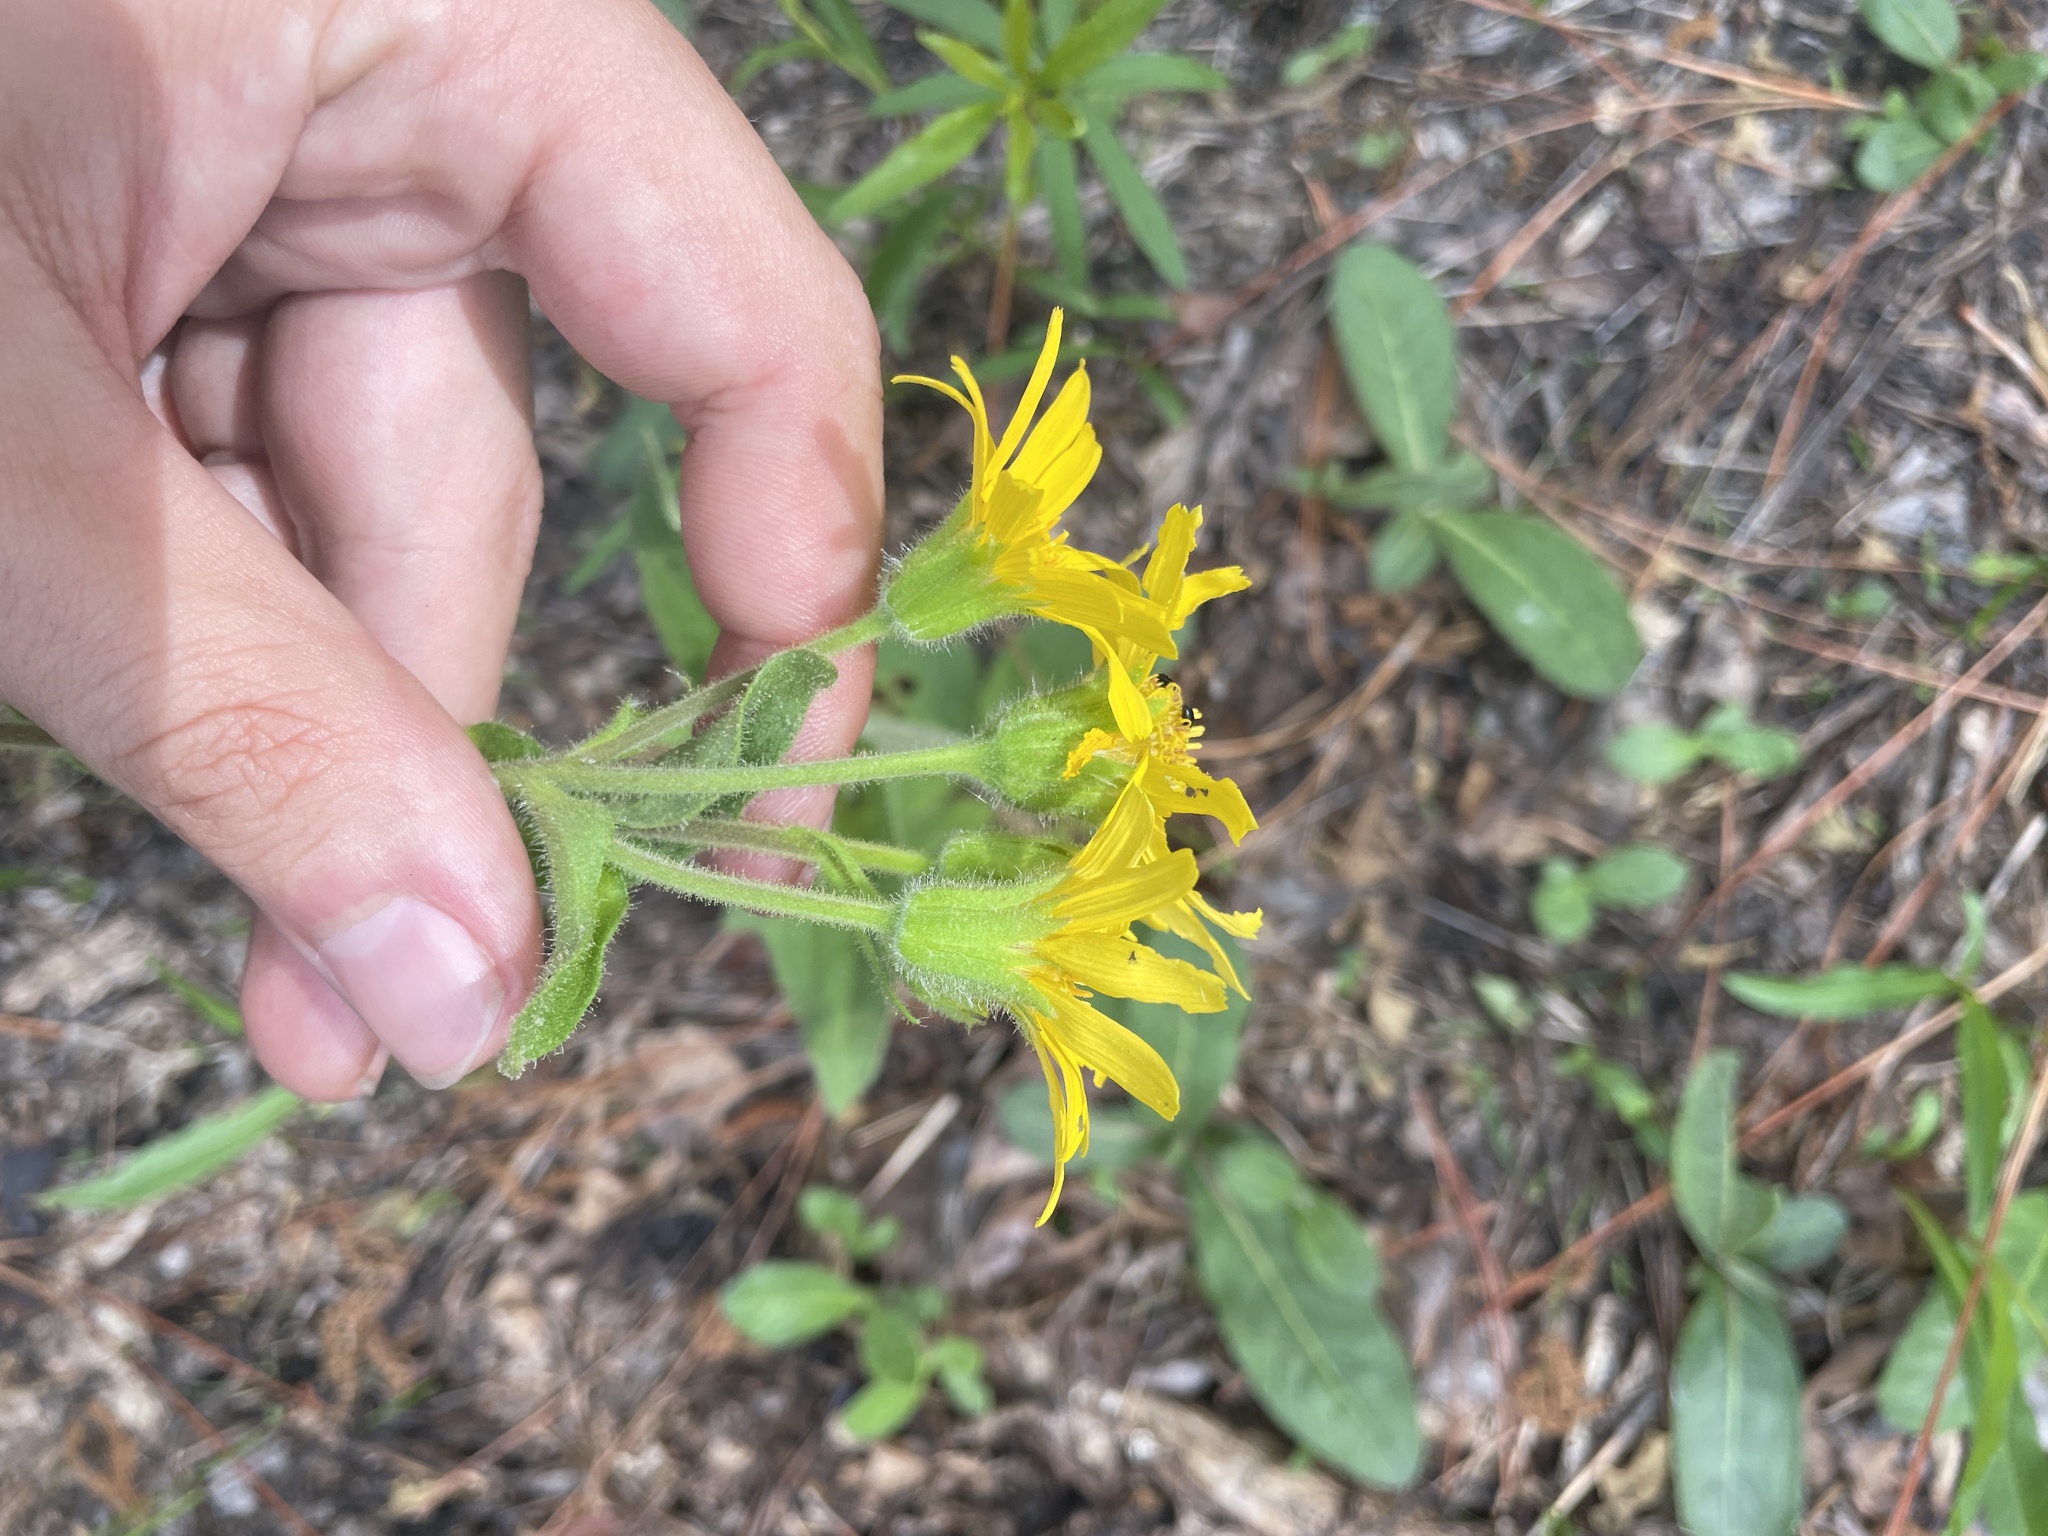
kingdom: Plantae
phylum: Tracheophyta
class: Magnoliopsida
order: Asterales
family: Asteraceae
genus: Arnica
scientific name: Arnica acaulis
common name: Common leopardbane
